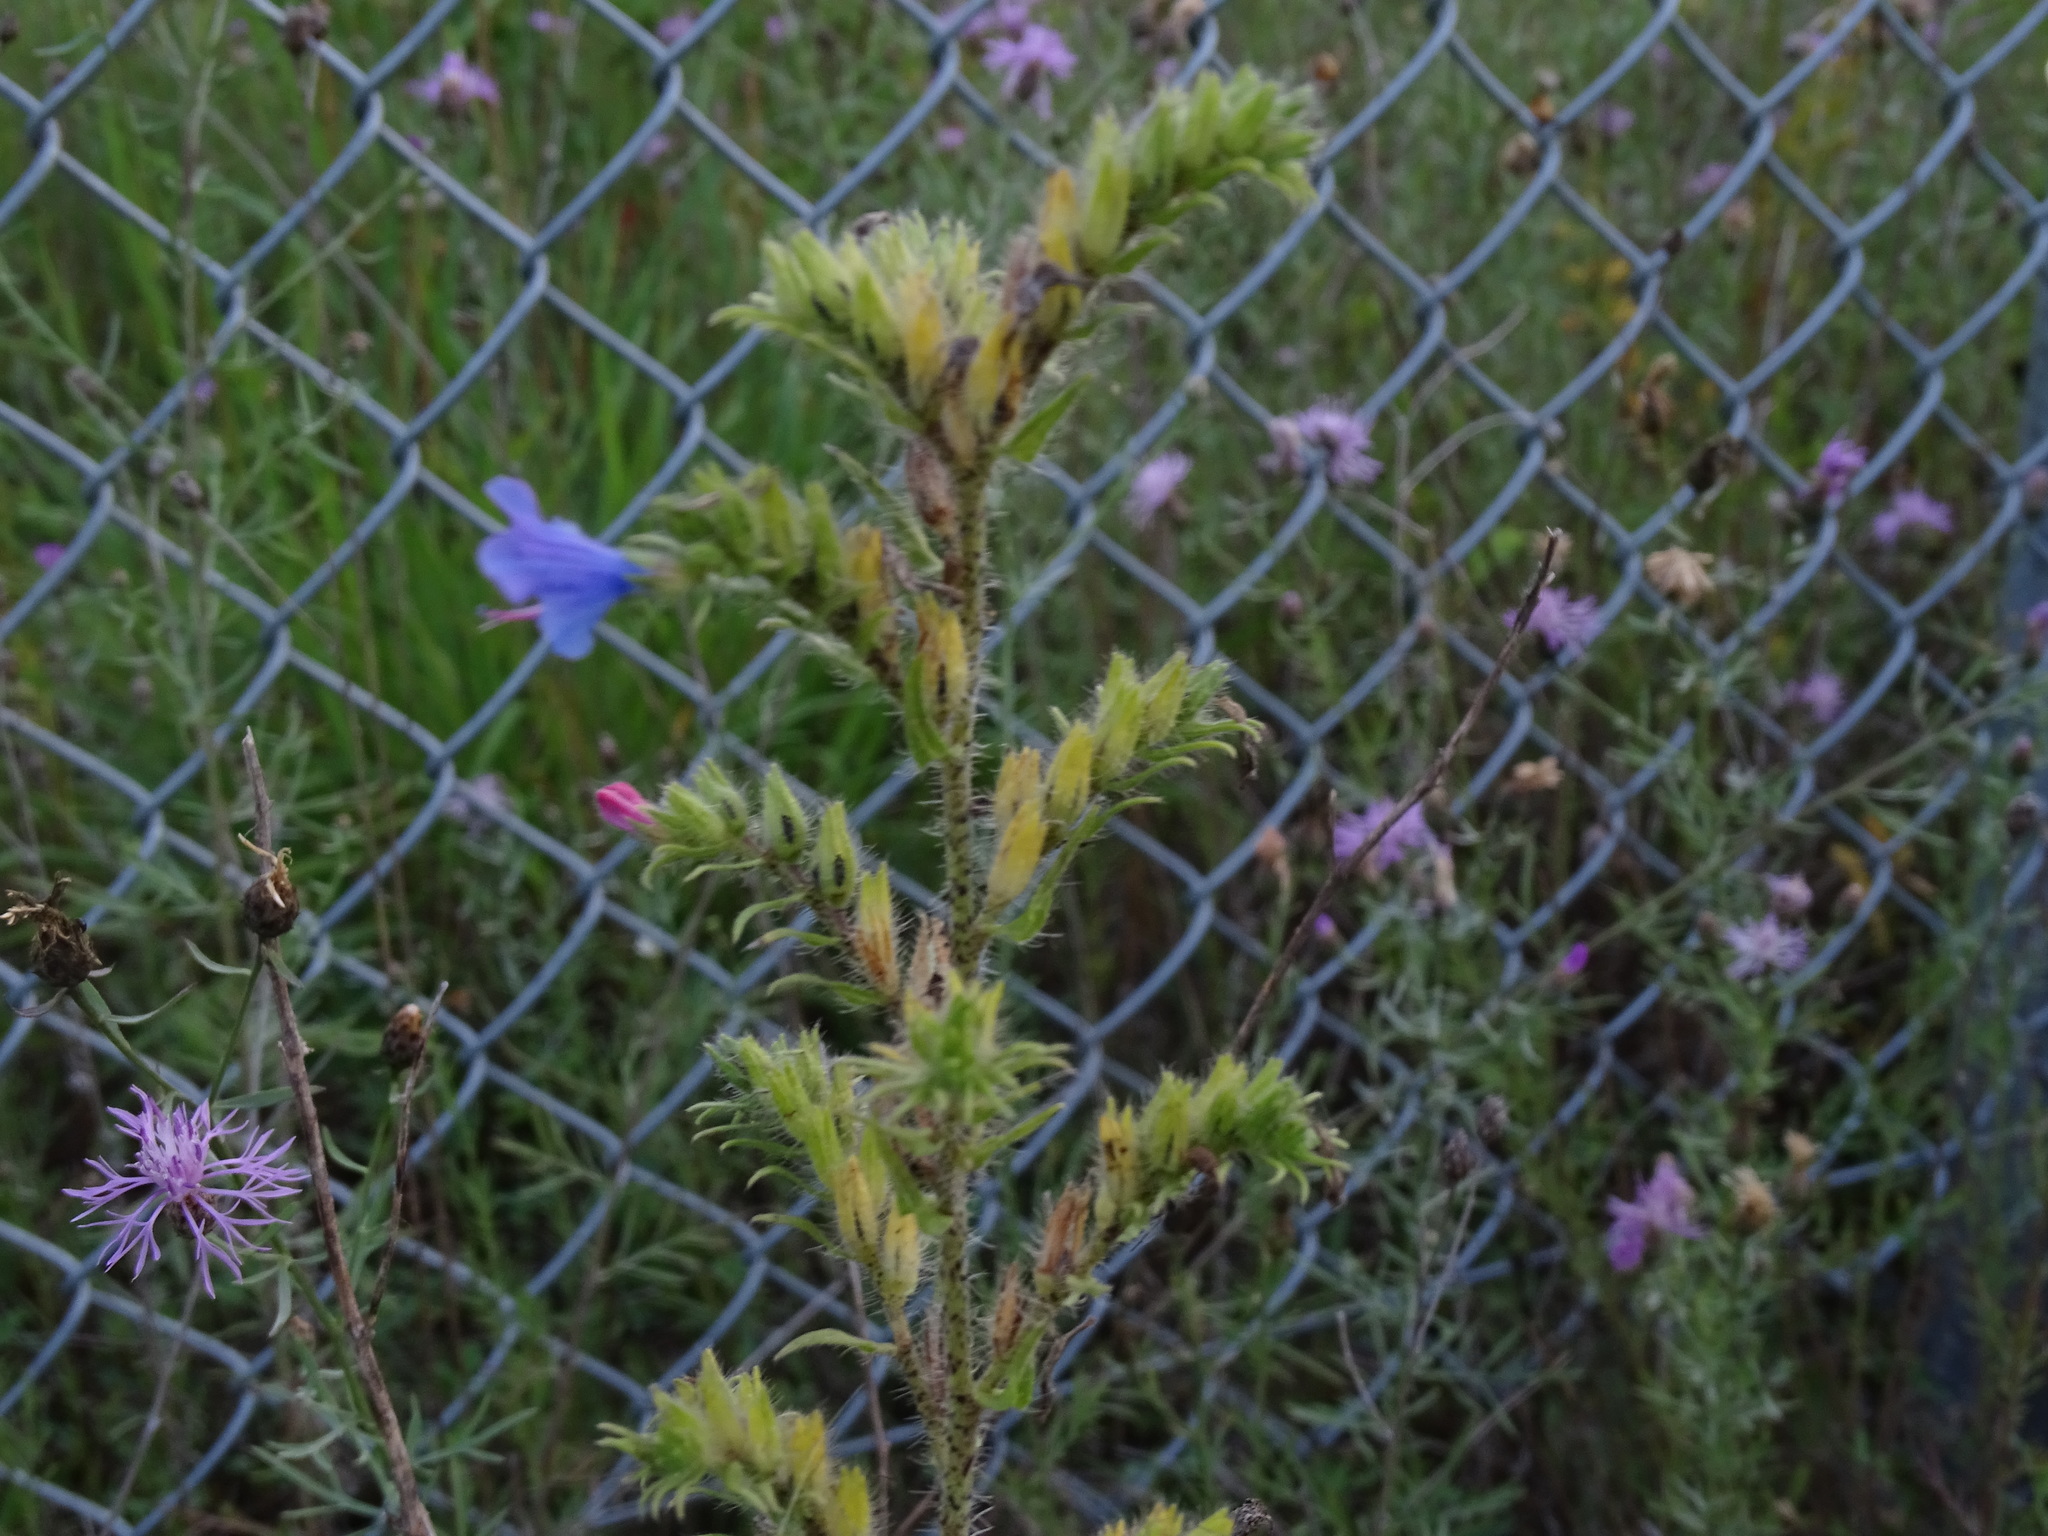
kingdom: Plantae
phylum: Tracheophyta
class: Magnoliopsida
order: Boraginales
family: Boraginaceae
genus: Echium
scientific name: Echium vulgare
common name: Common viper's bugloss
